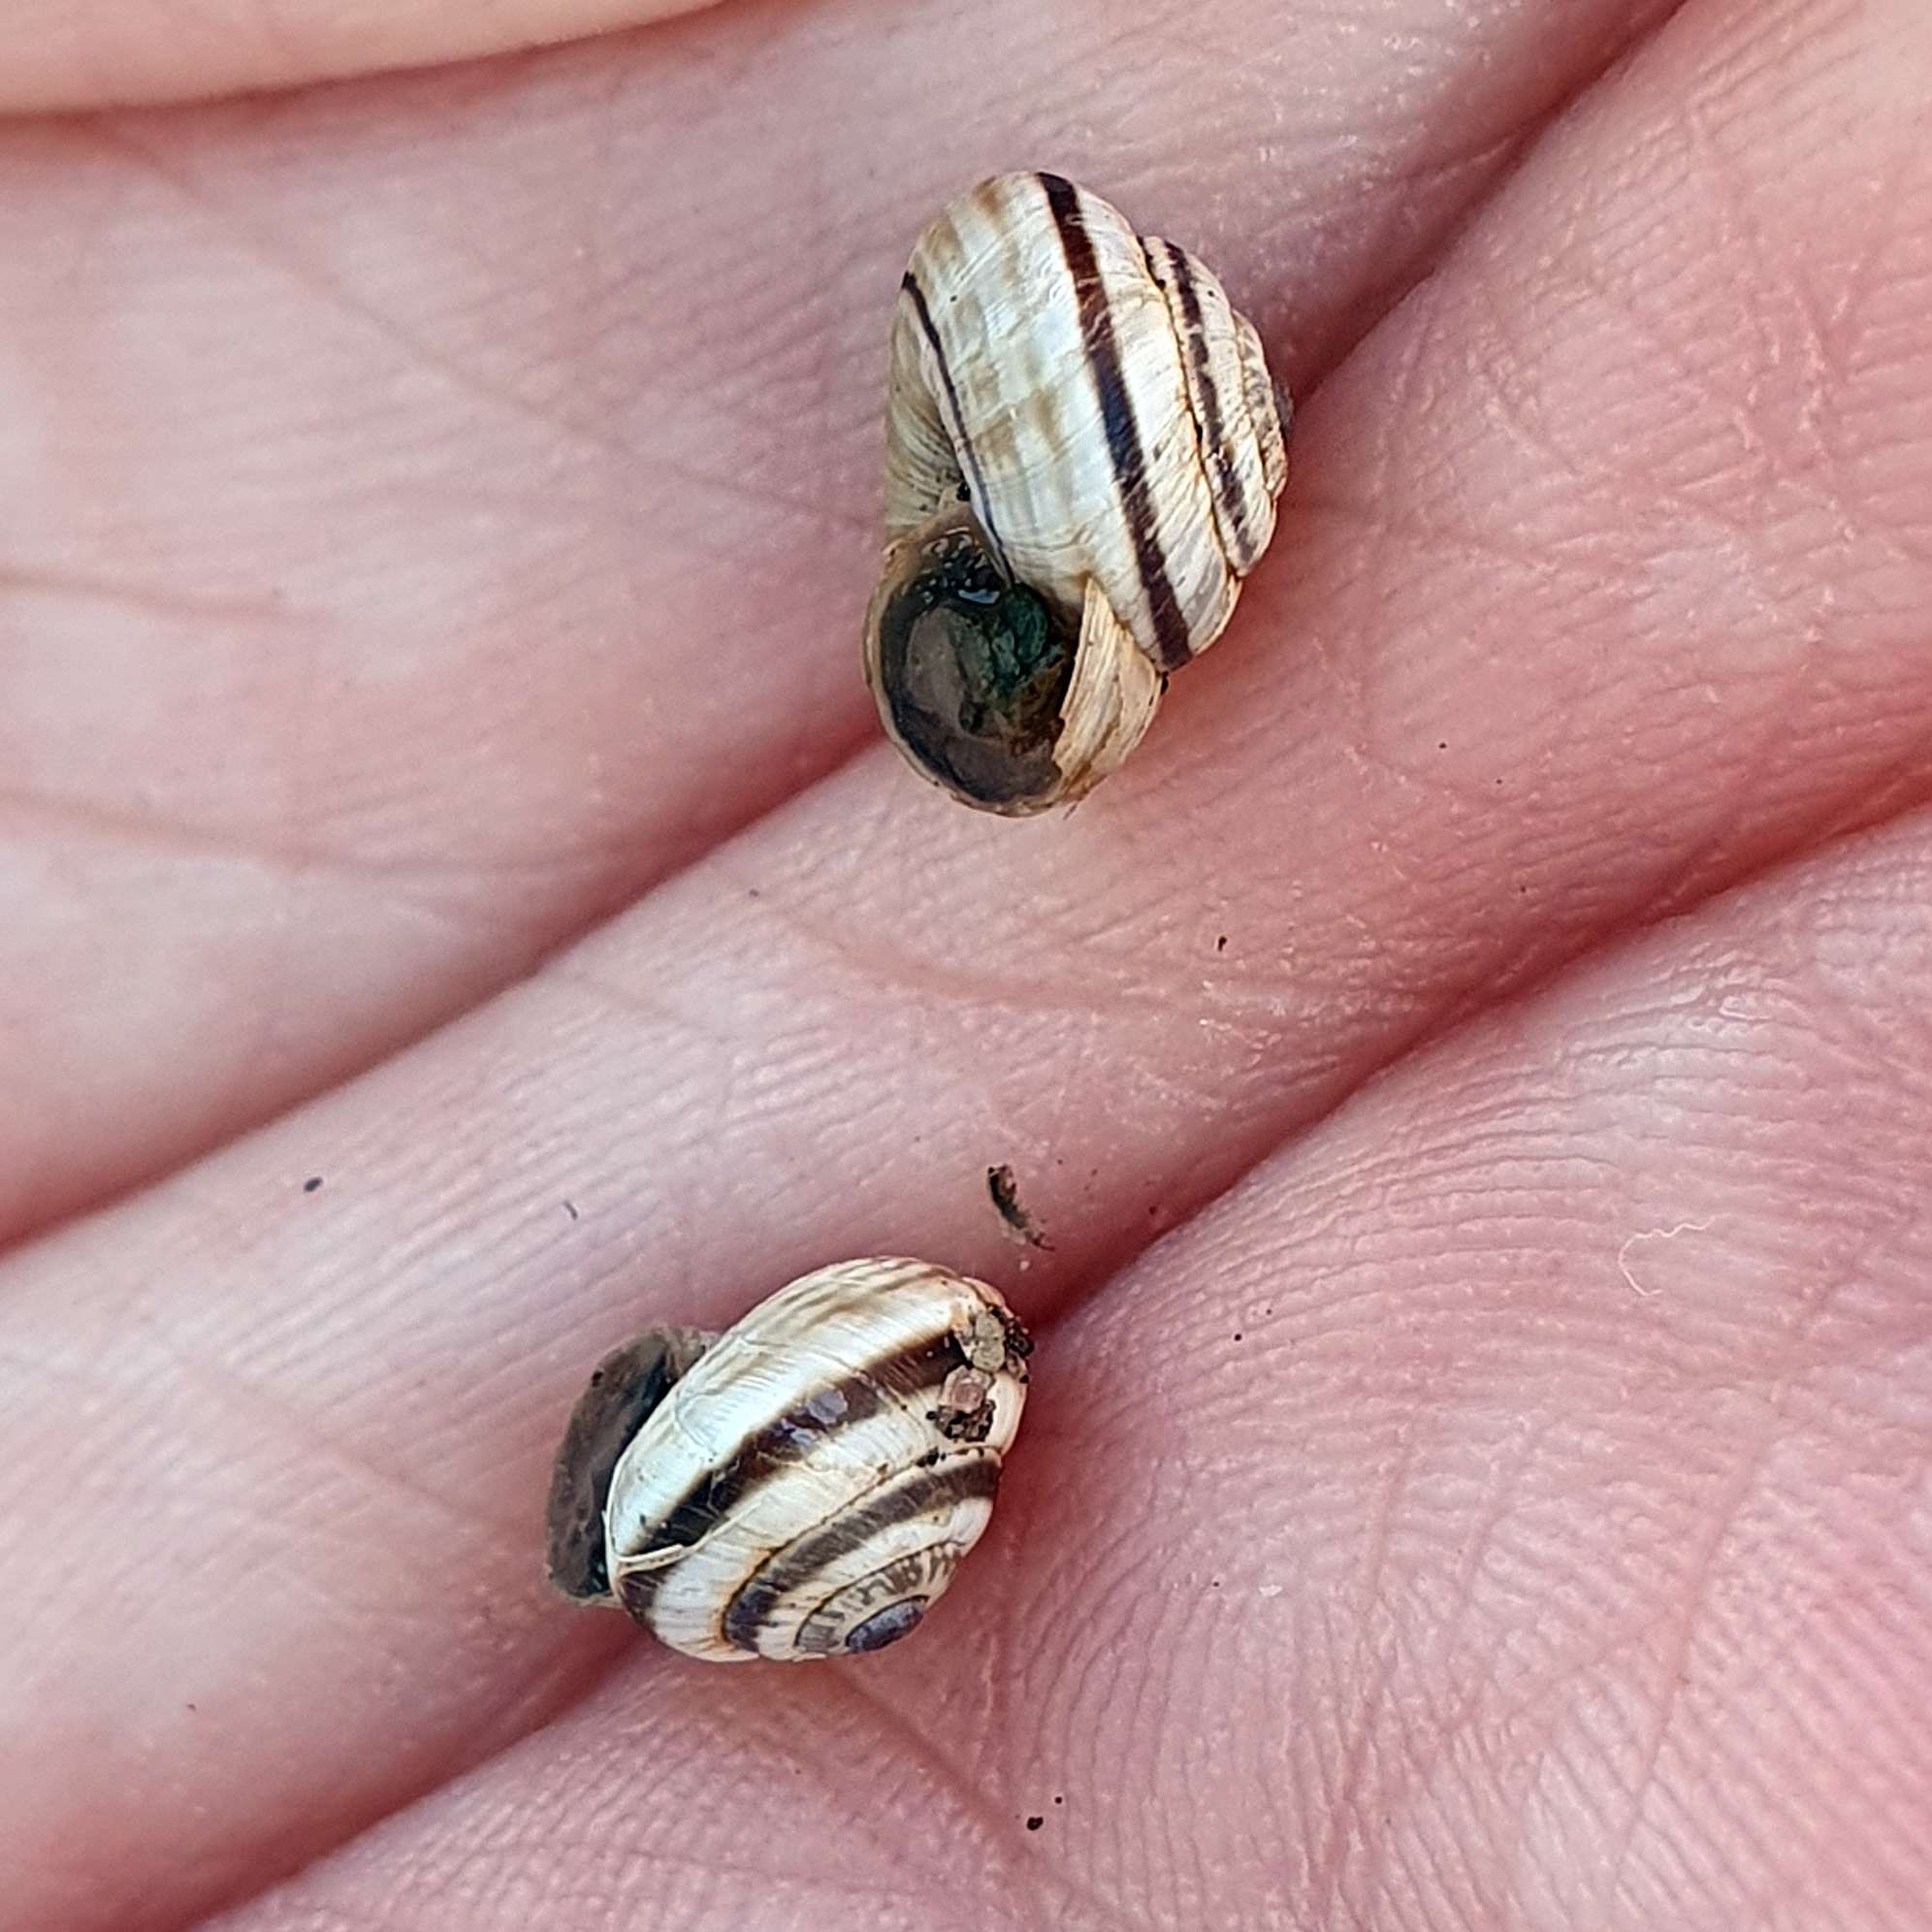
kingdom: Animalia
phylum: Mollusca
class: Gastropoda
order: Stylommatophora
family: Geomitridae
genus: Cernuella
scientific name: Cernuella virgata
